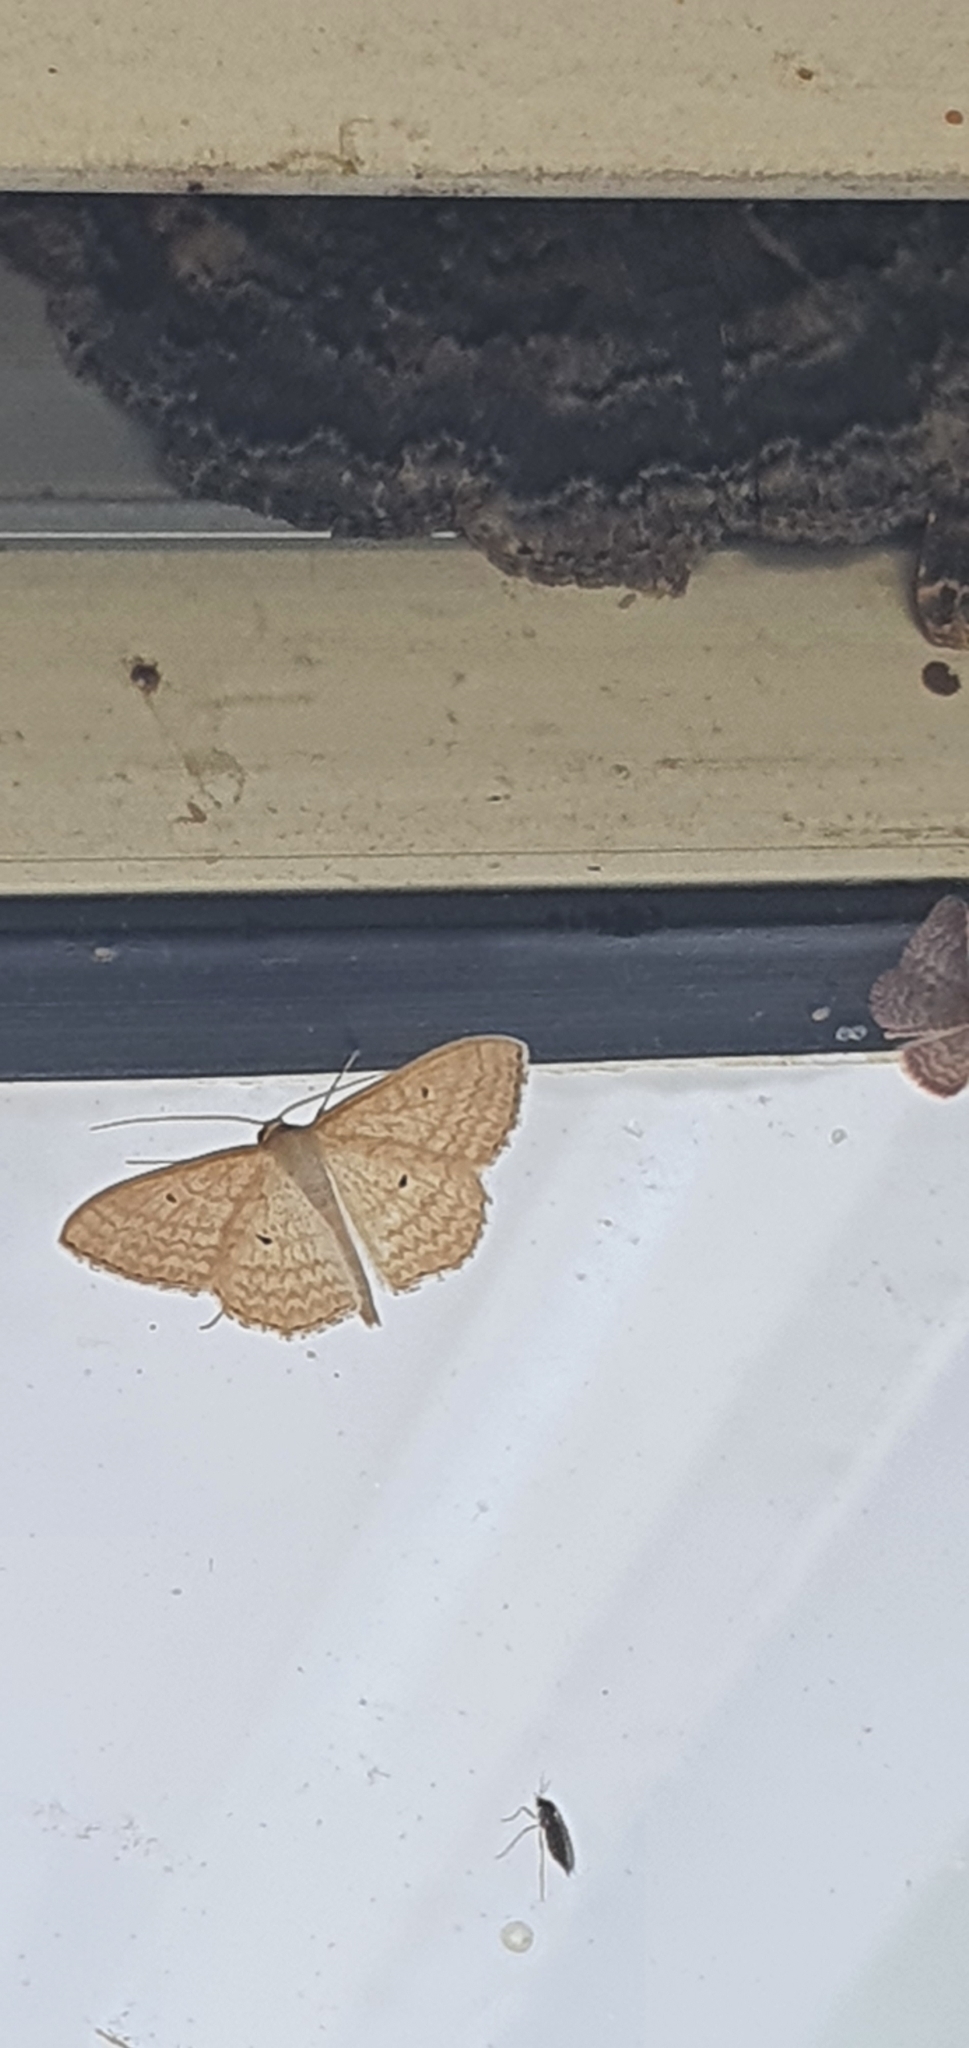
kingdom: Animalia
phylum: Arthropoda
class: Insecta
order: Lepidoptera
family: Geometridae
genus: Scopula
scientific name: Scopula oppilata
